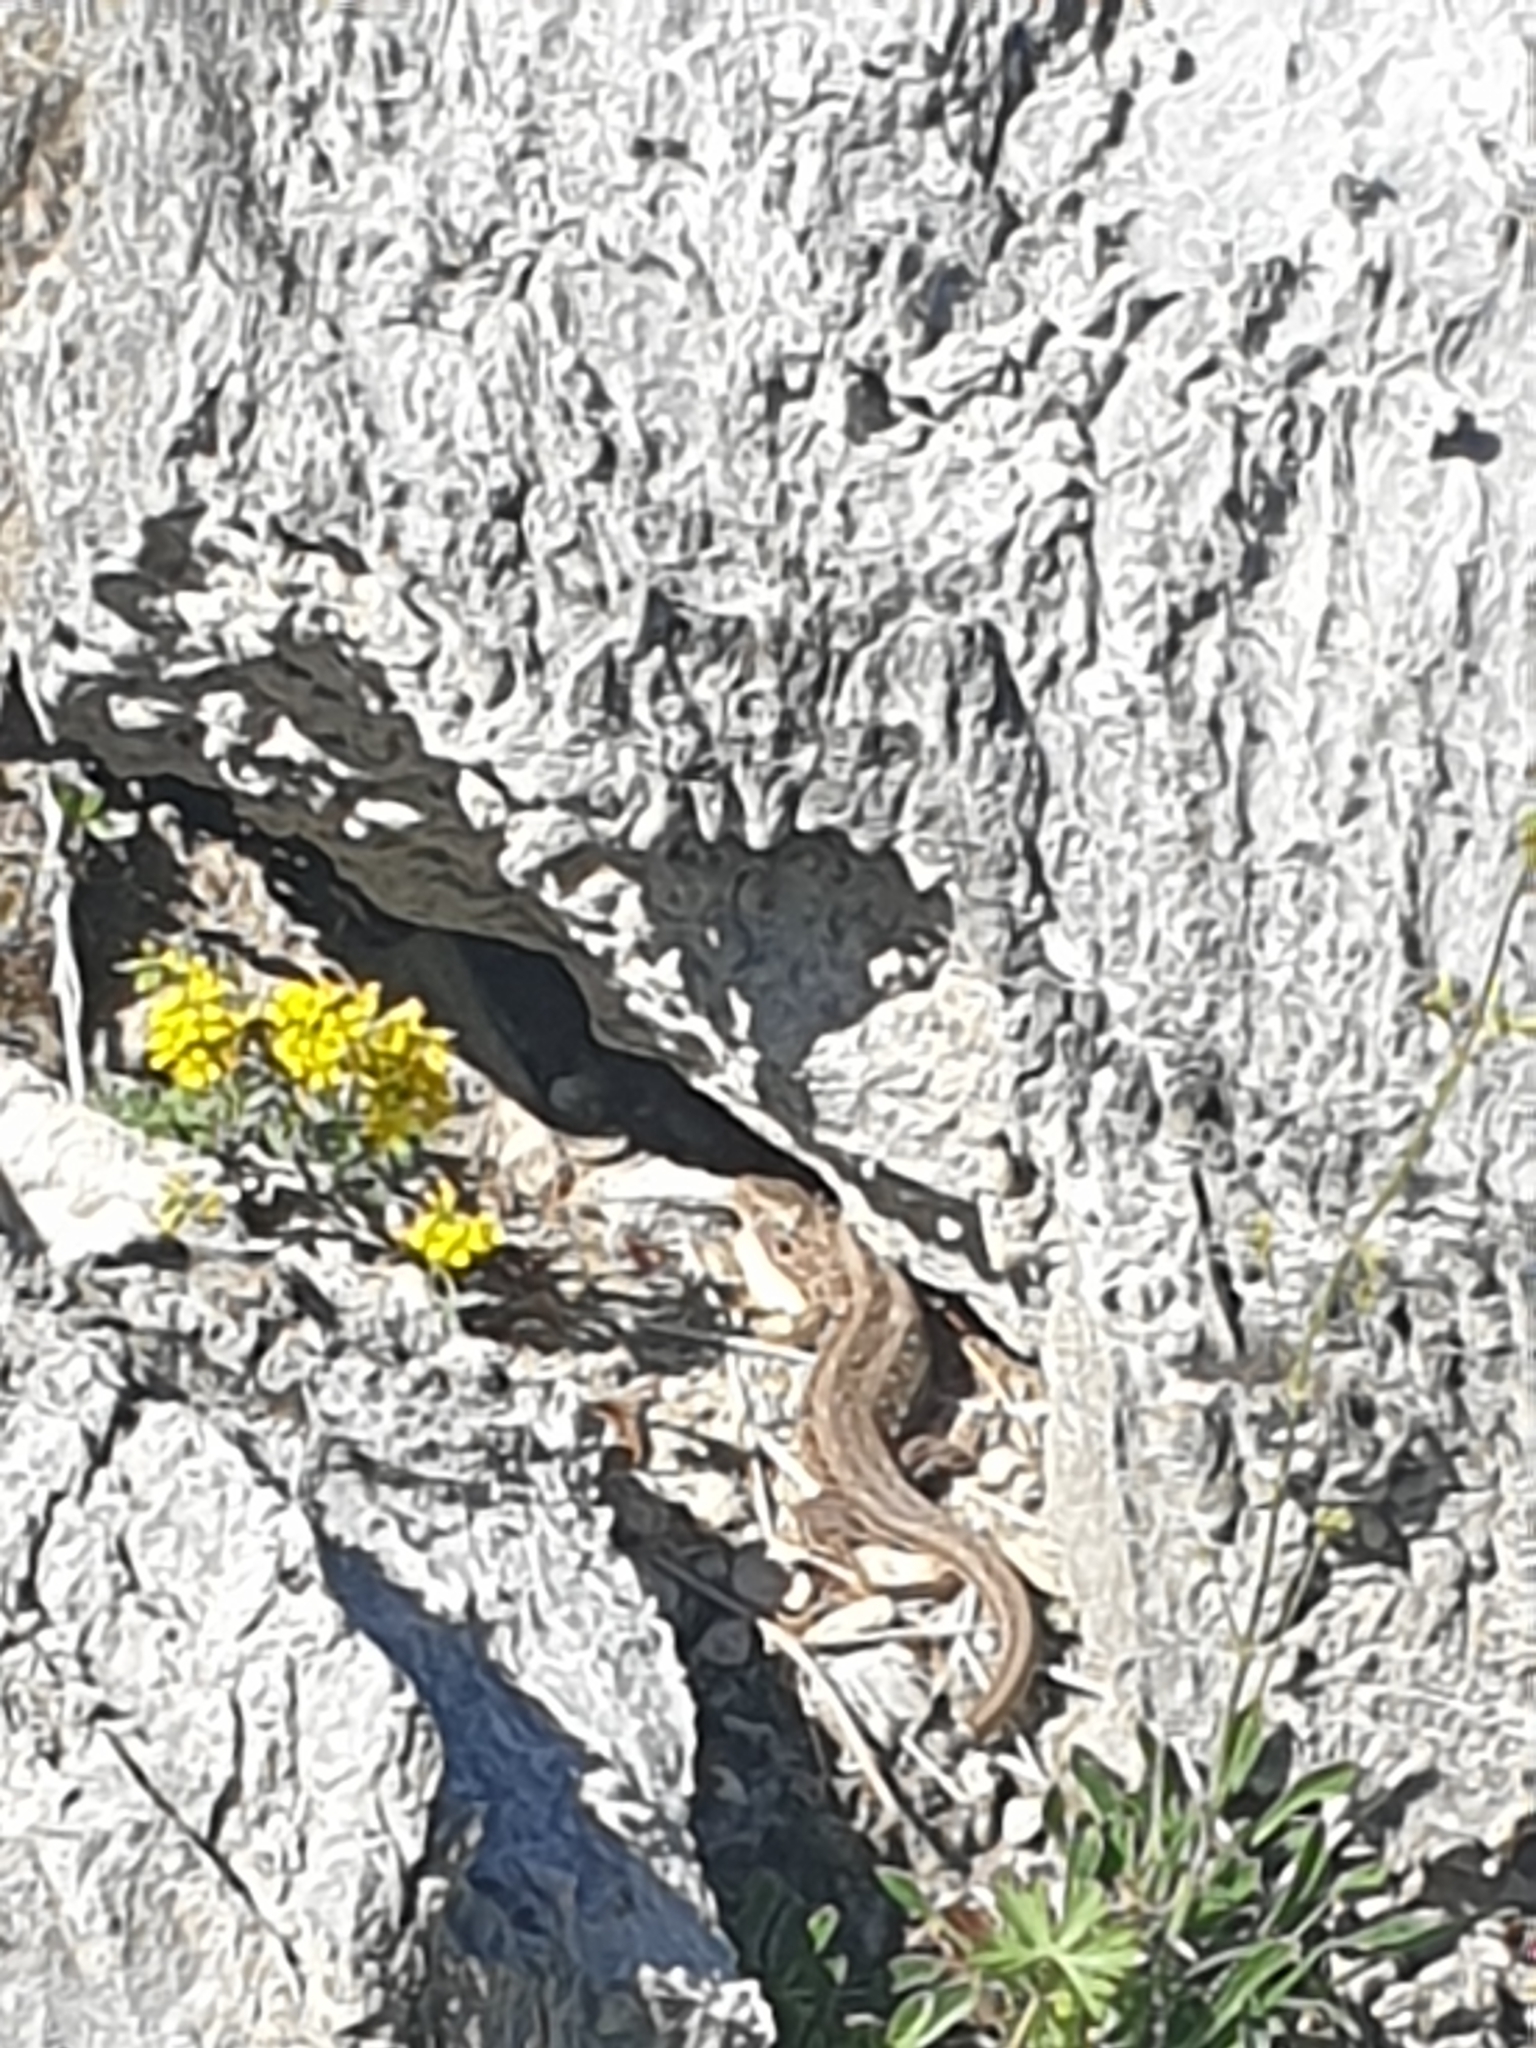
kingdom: Animalia
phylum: Chordata
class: Squamata
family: Lacertidae
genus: Lacerta
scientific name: Lacerta agilis
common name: Sand lizard
